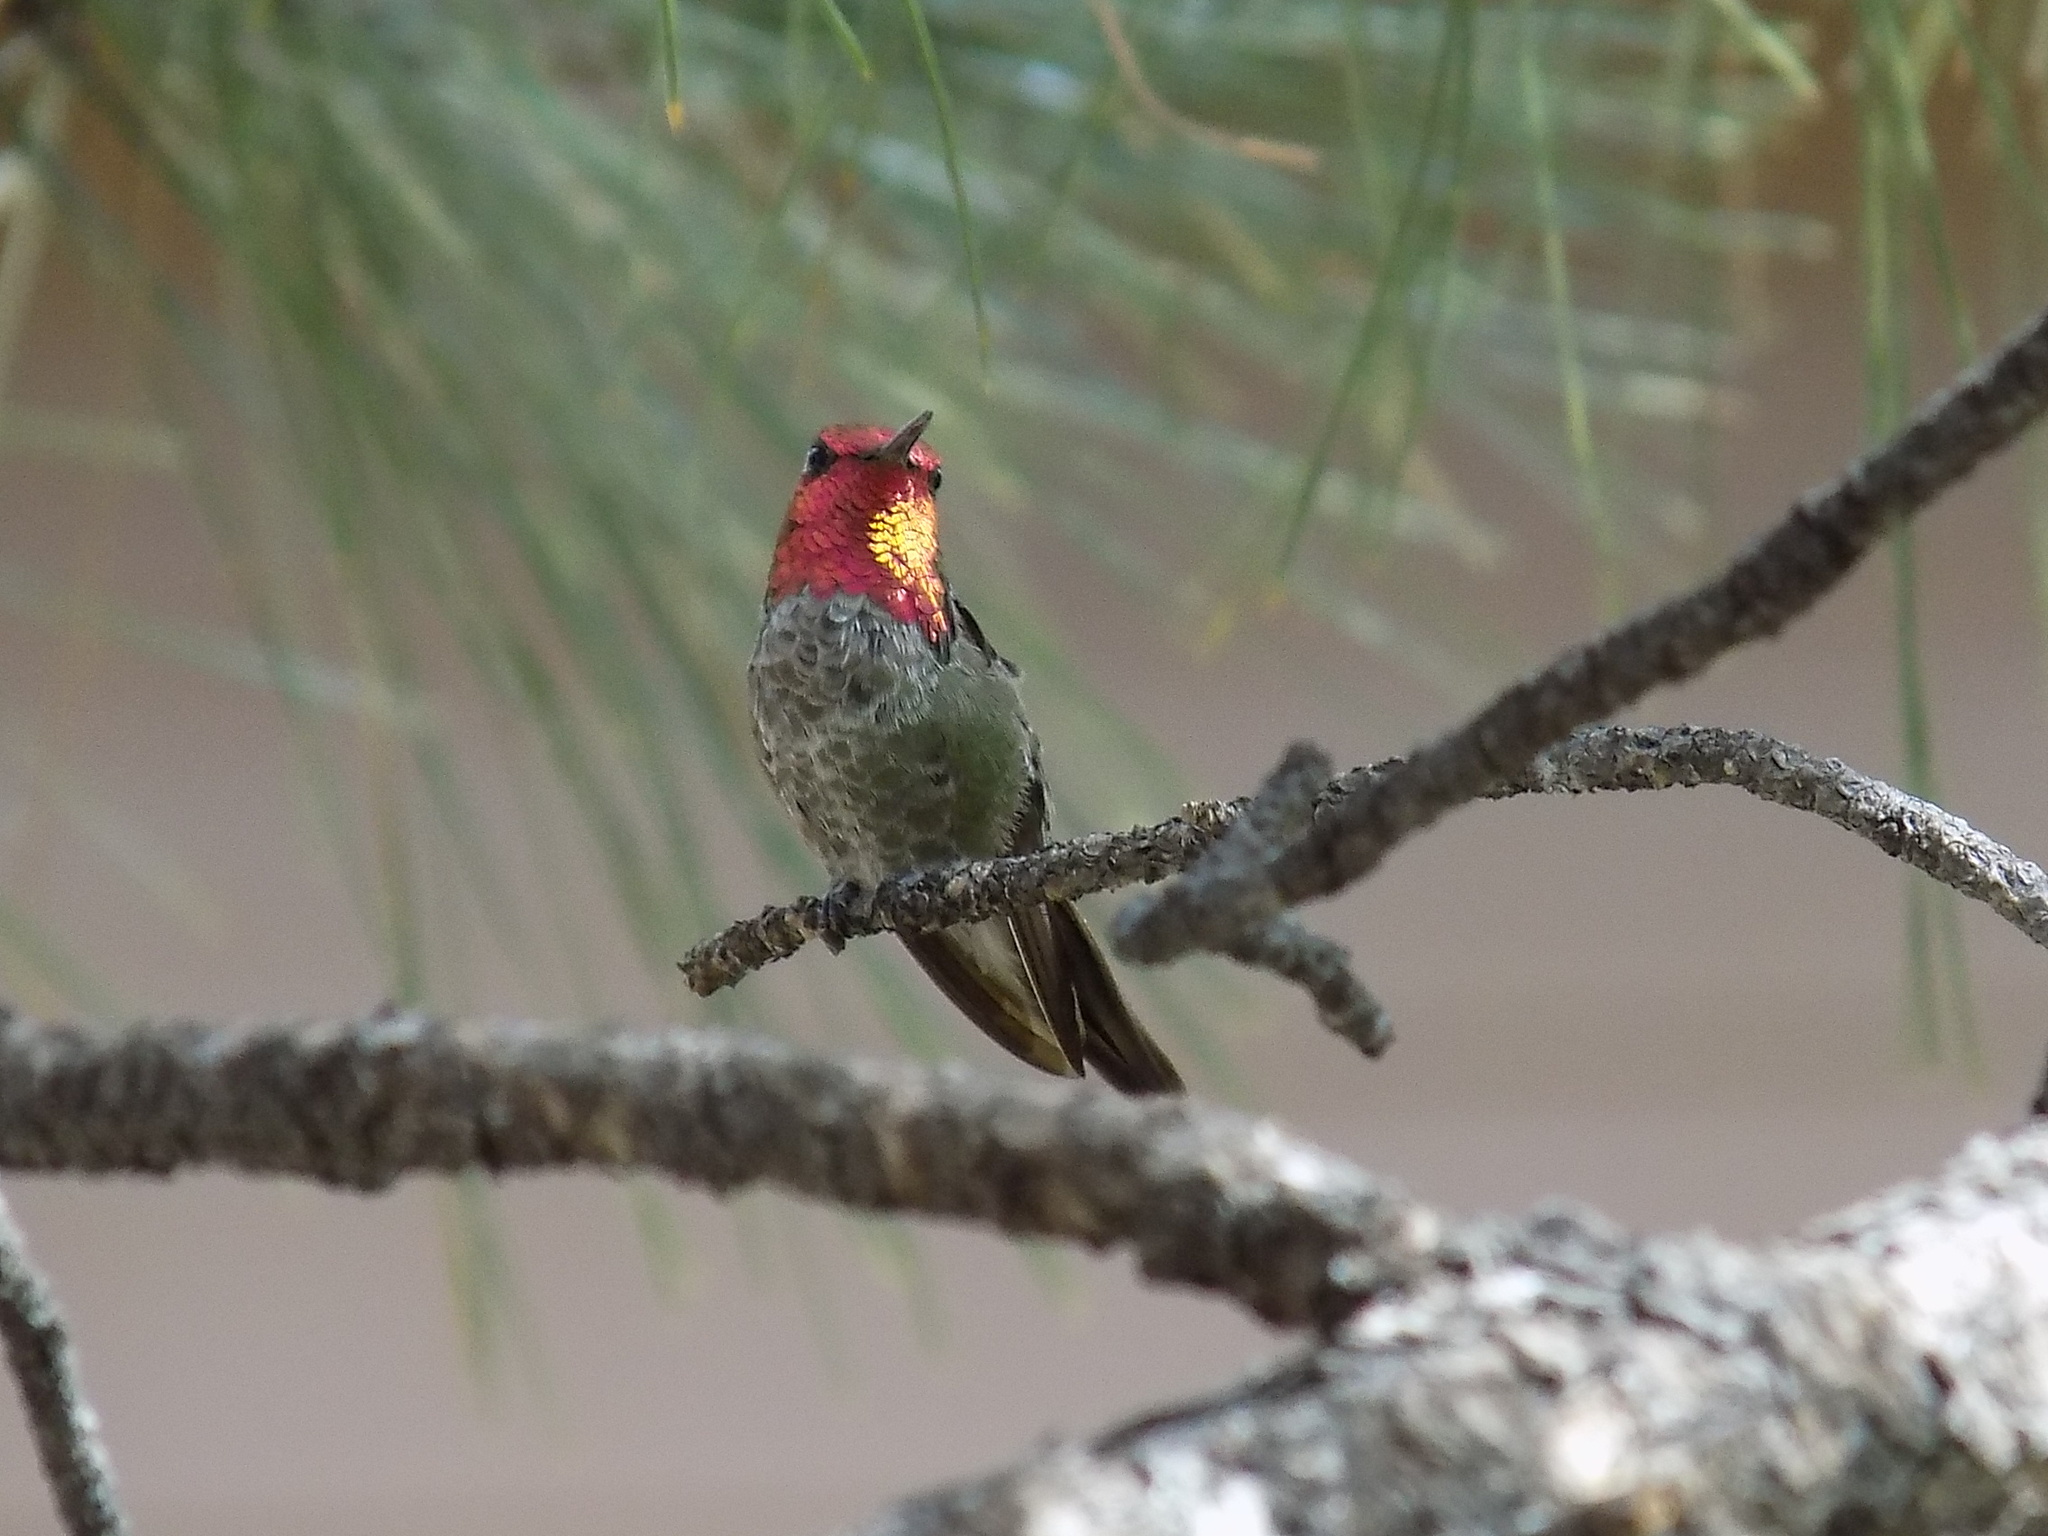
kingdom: Animalia
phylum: Chordata
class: Aves
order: Apodiformes
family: Trochilidae
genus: Calypte
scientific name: Calypte anna
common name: Anna's hummingbird
